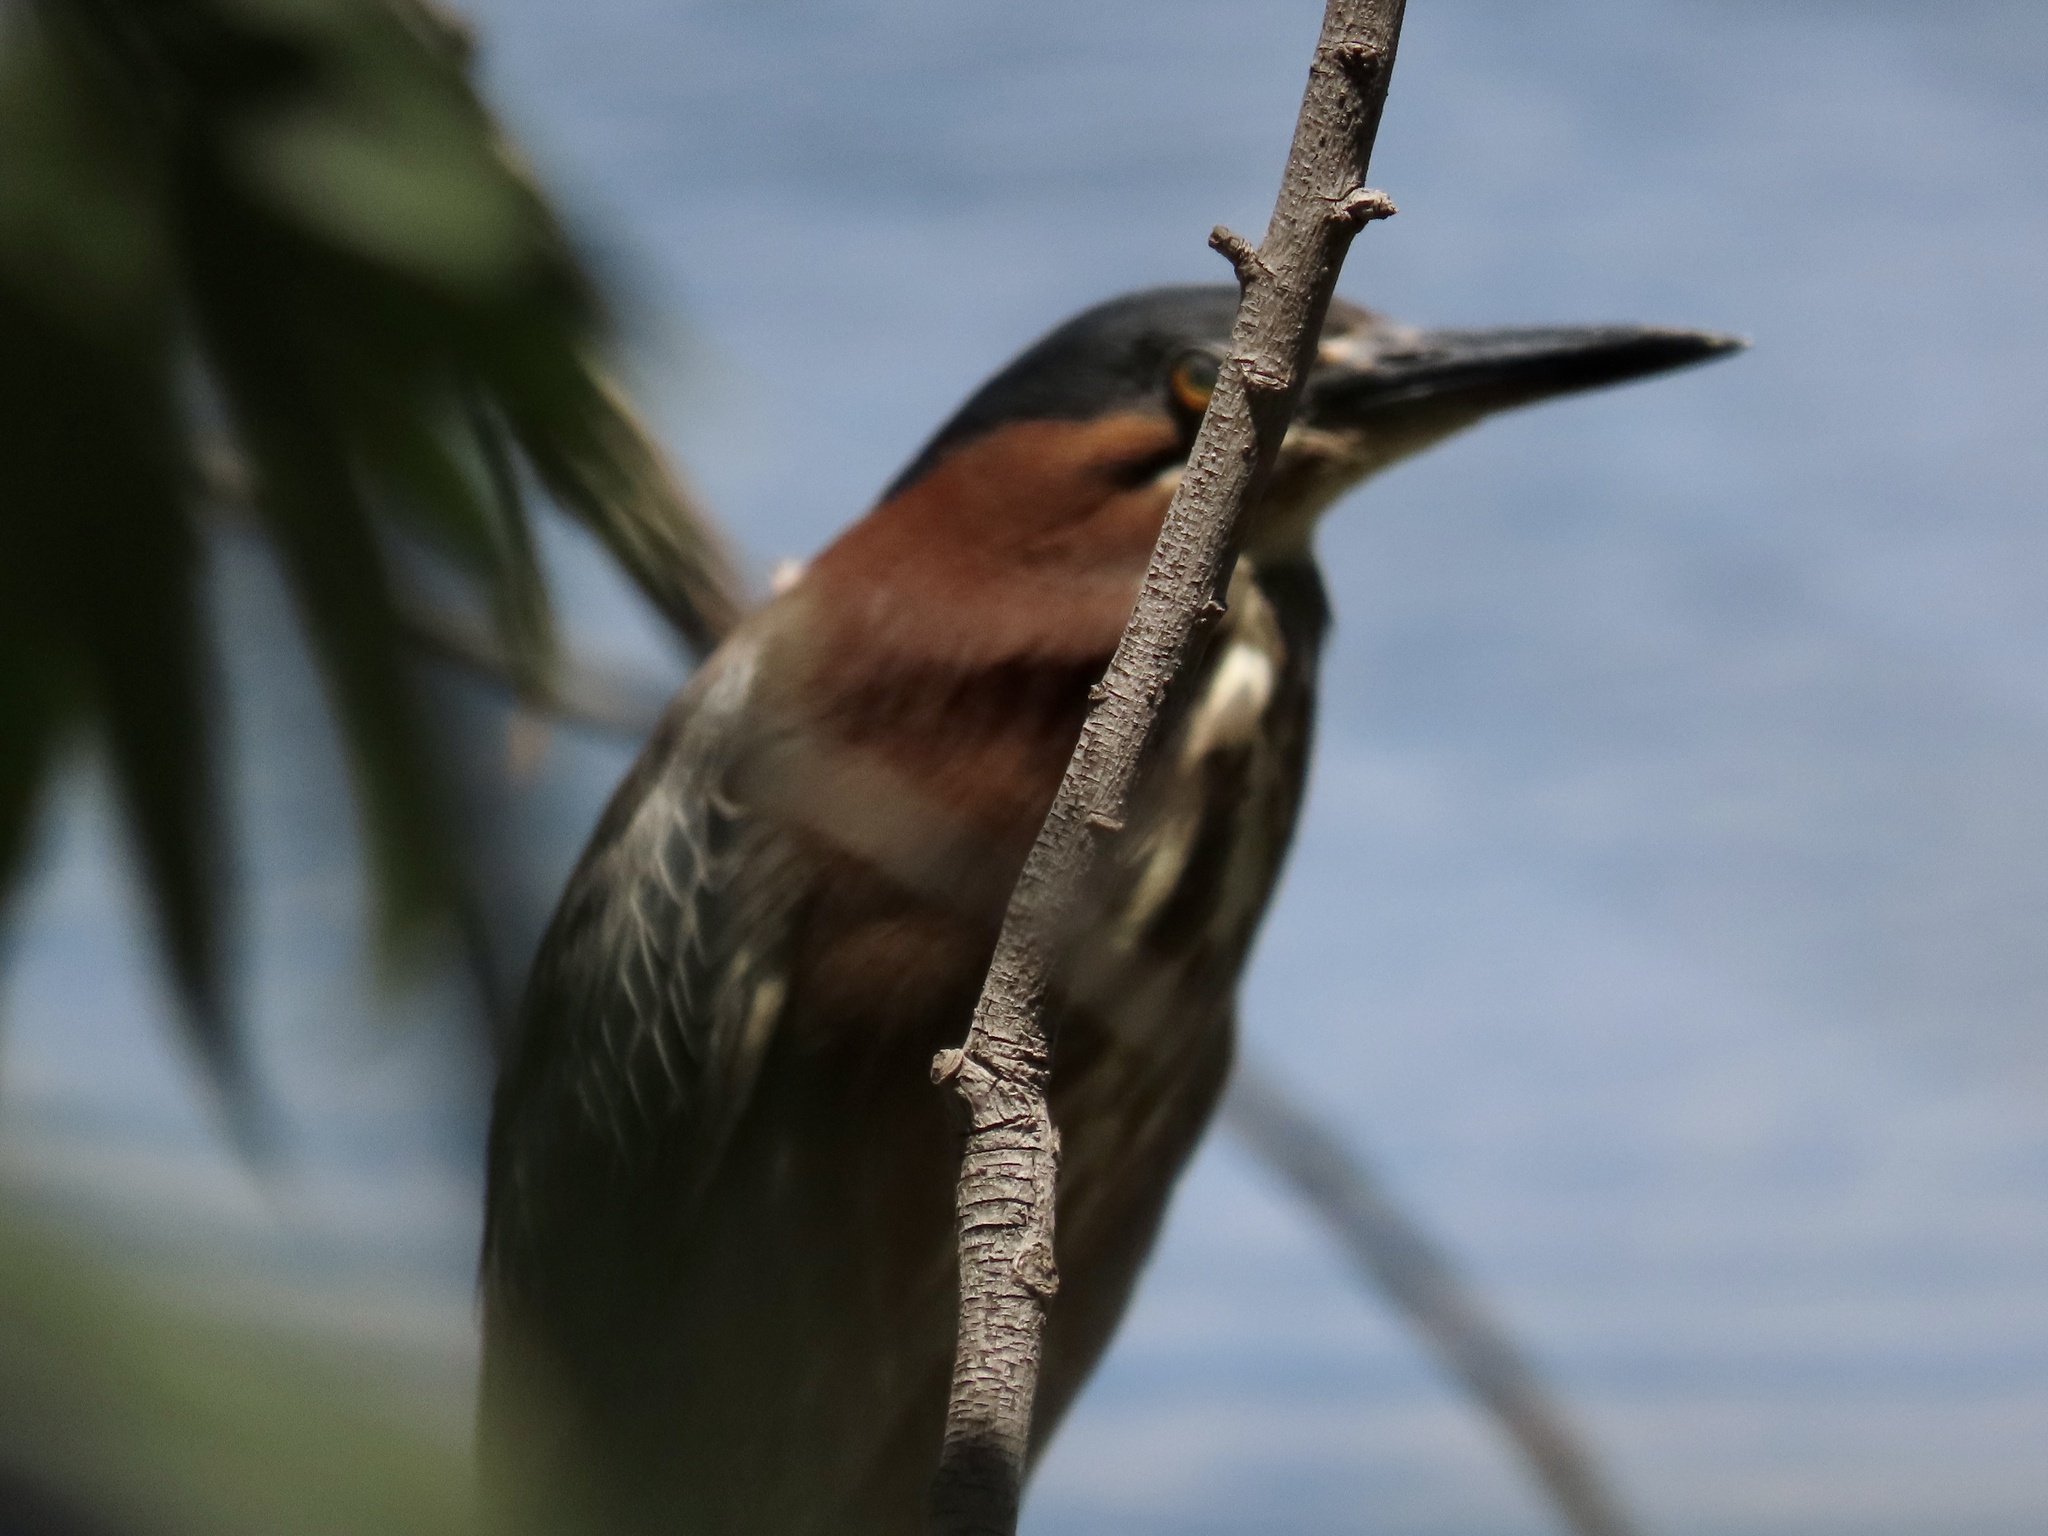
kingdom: Animalia
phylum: Chordata
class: Aves
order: Pelecaniformes
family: Ardeidae
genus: Butorides
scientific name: Butorides virescens
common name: Green heron
